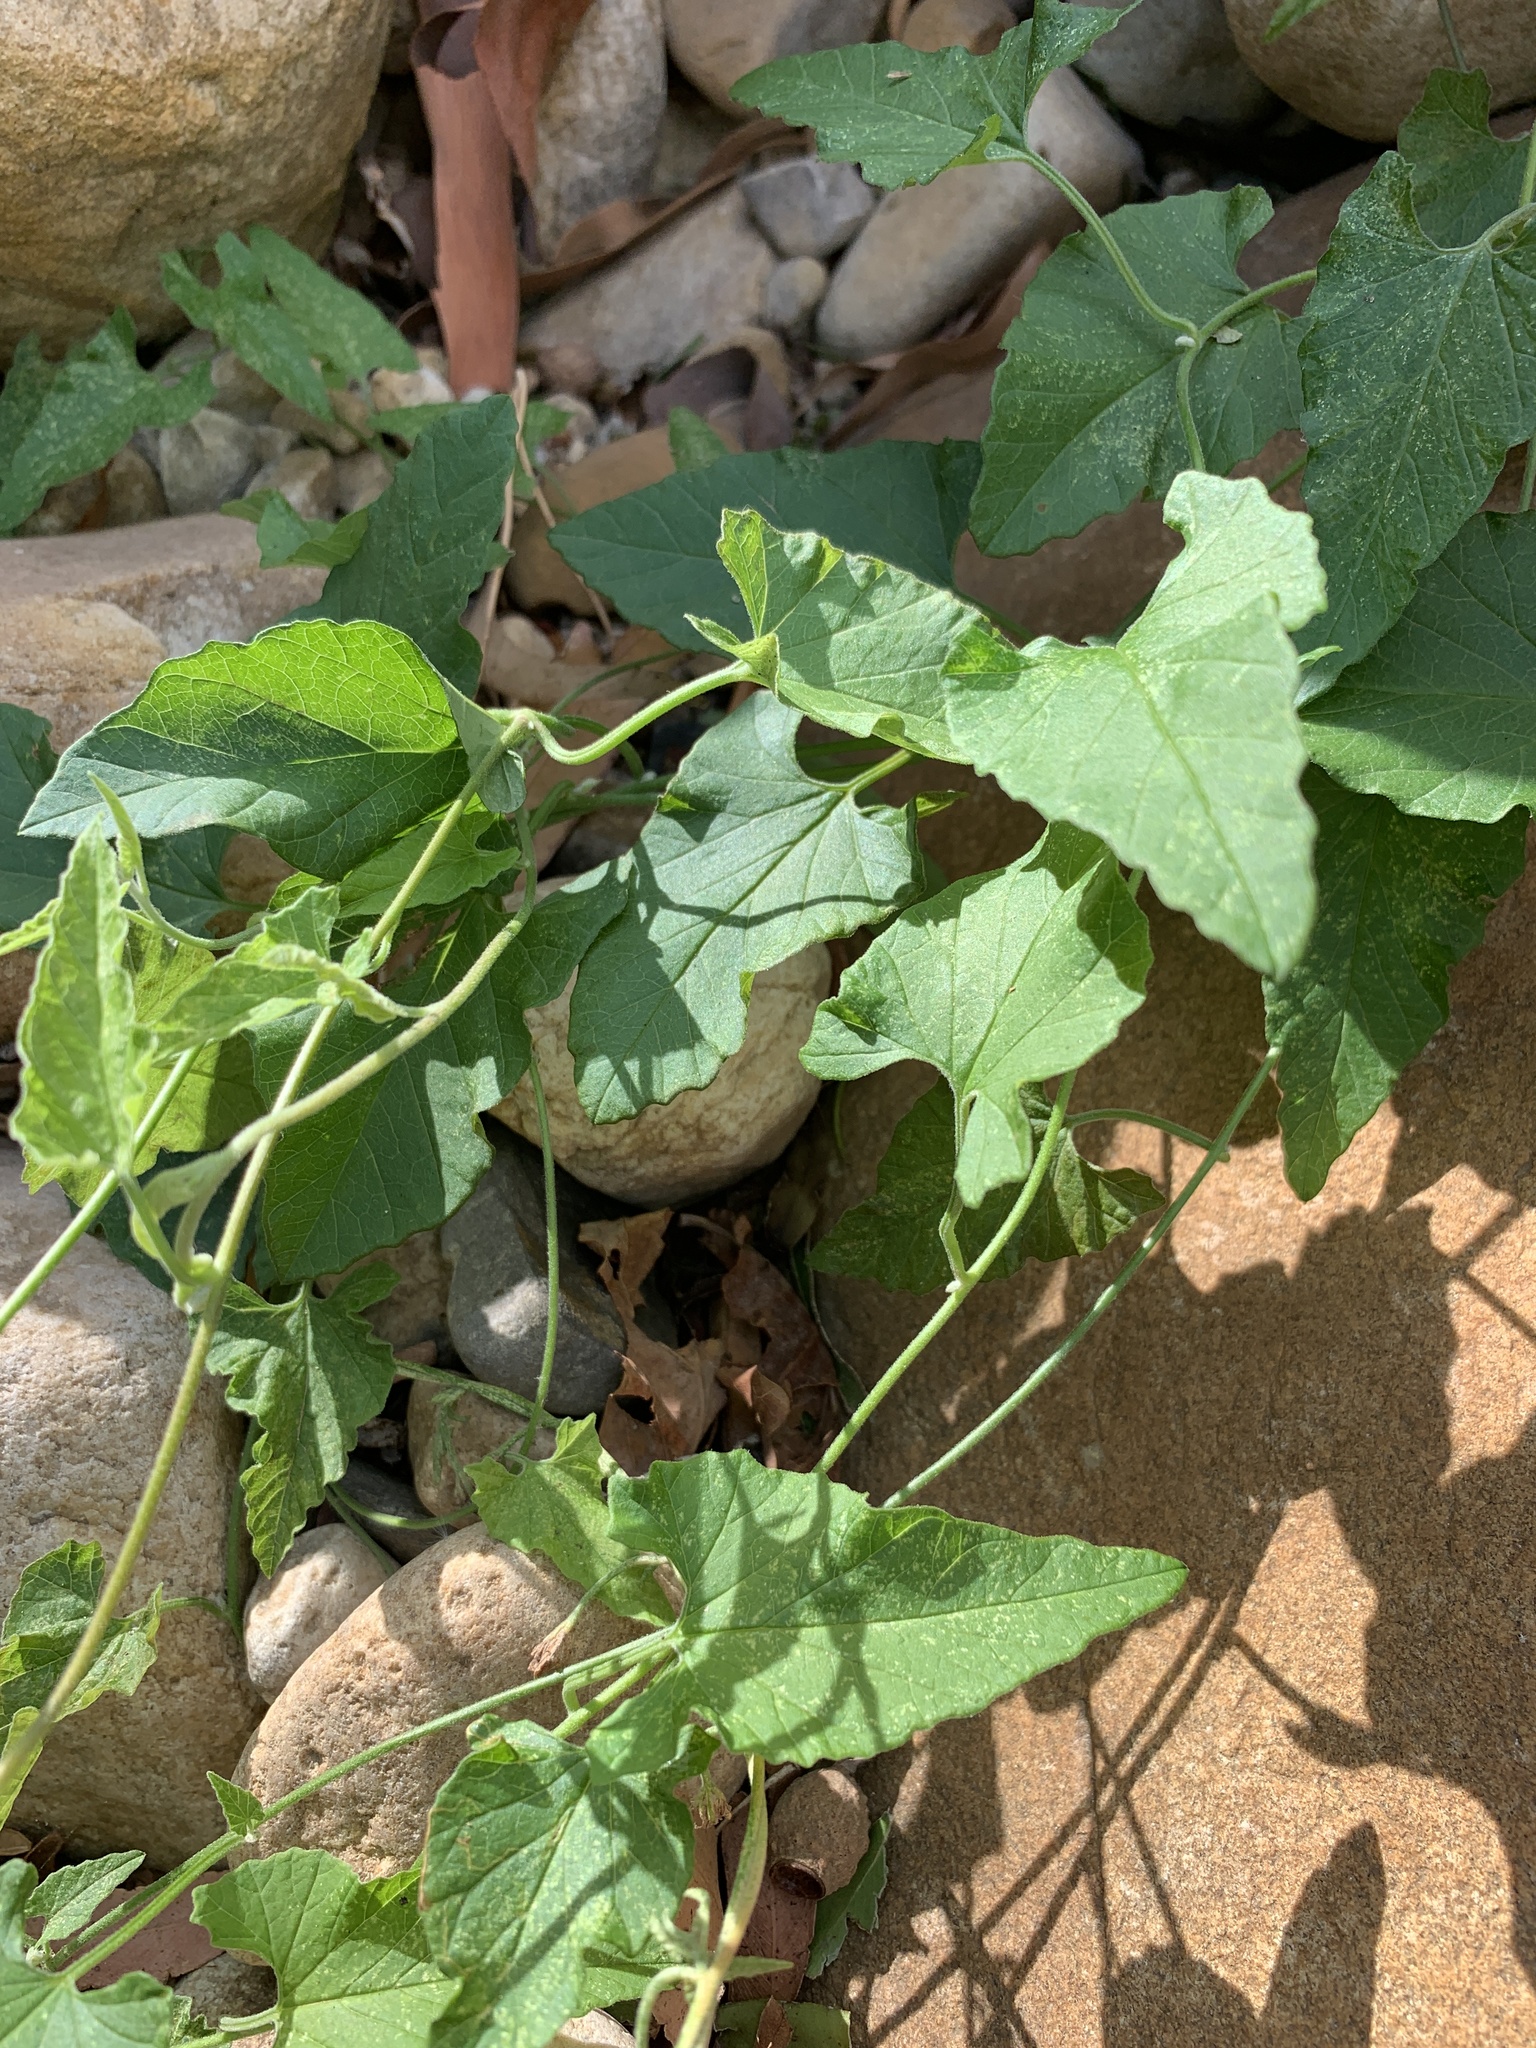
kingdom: Plantae
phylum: Tracheophyta
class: Magnoliopsida
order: Solanales
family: Convolvulaceae
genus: Convolvulus
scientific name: Convolvulus farinosus
